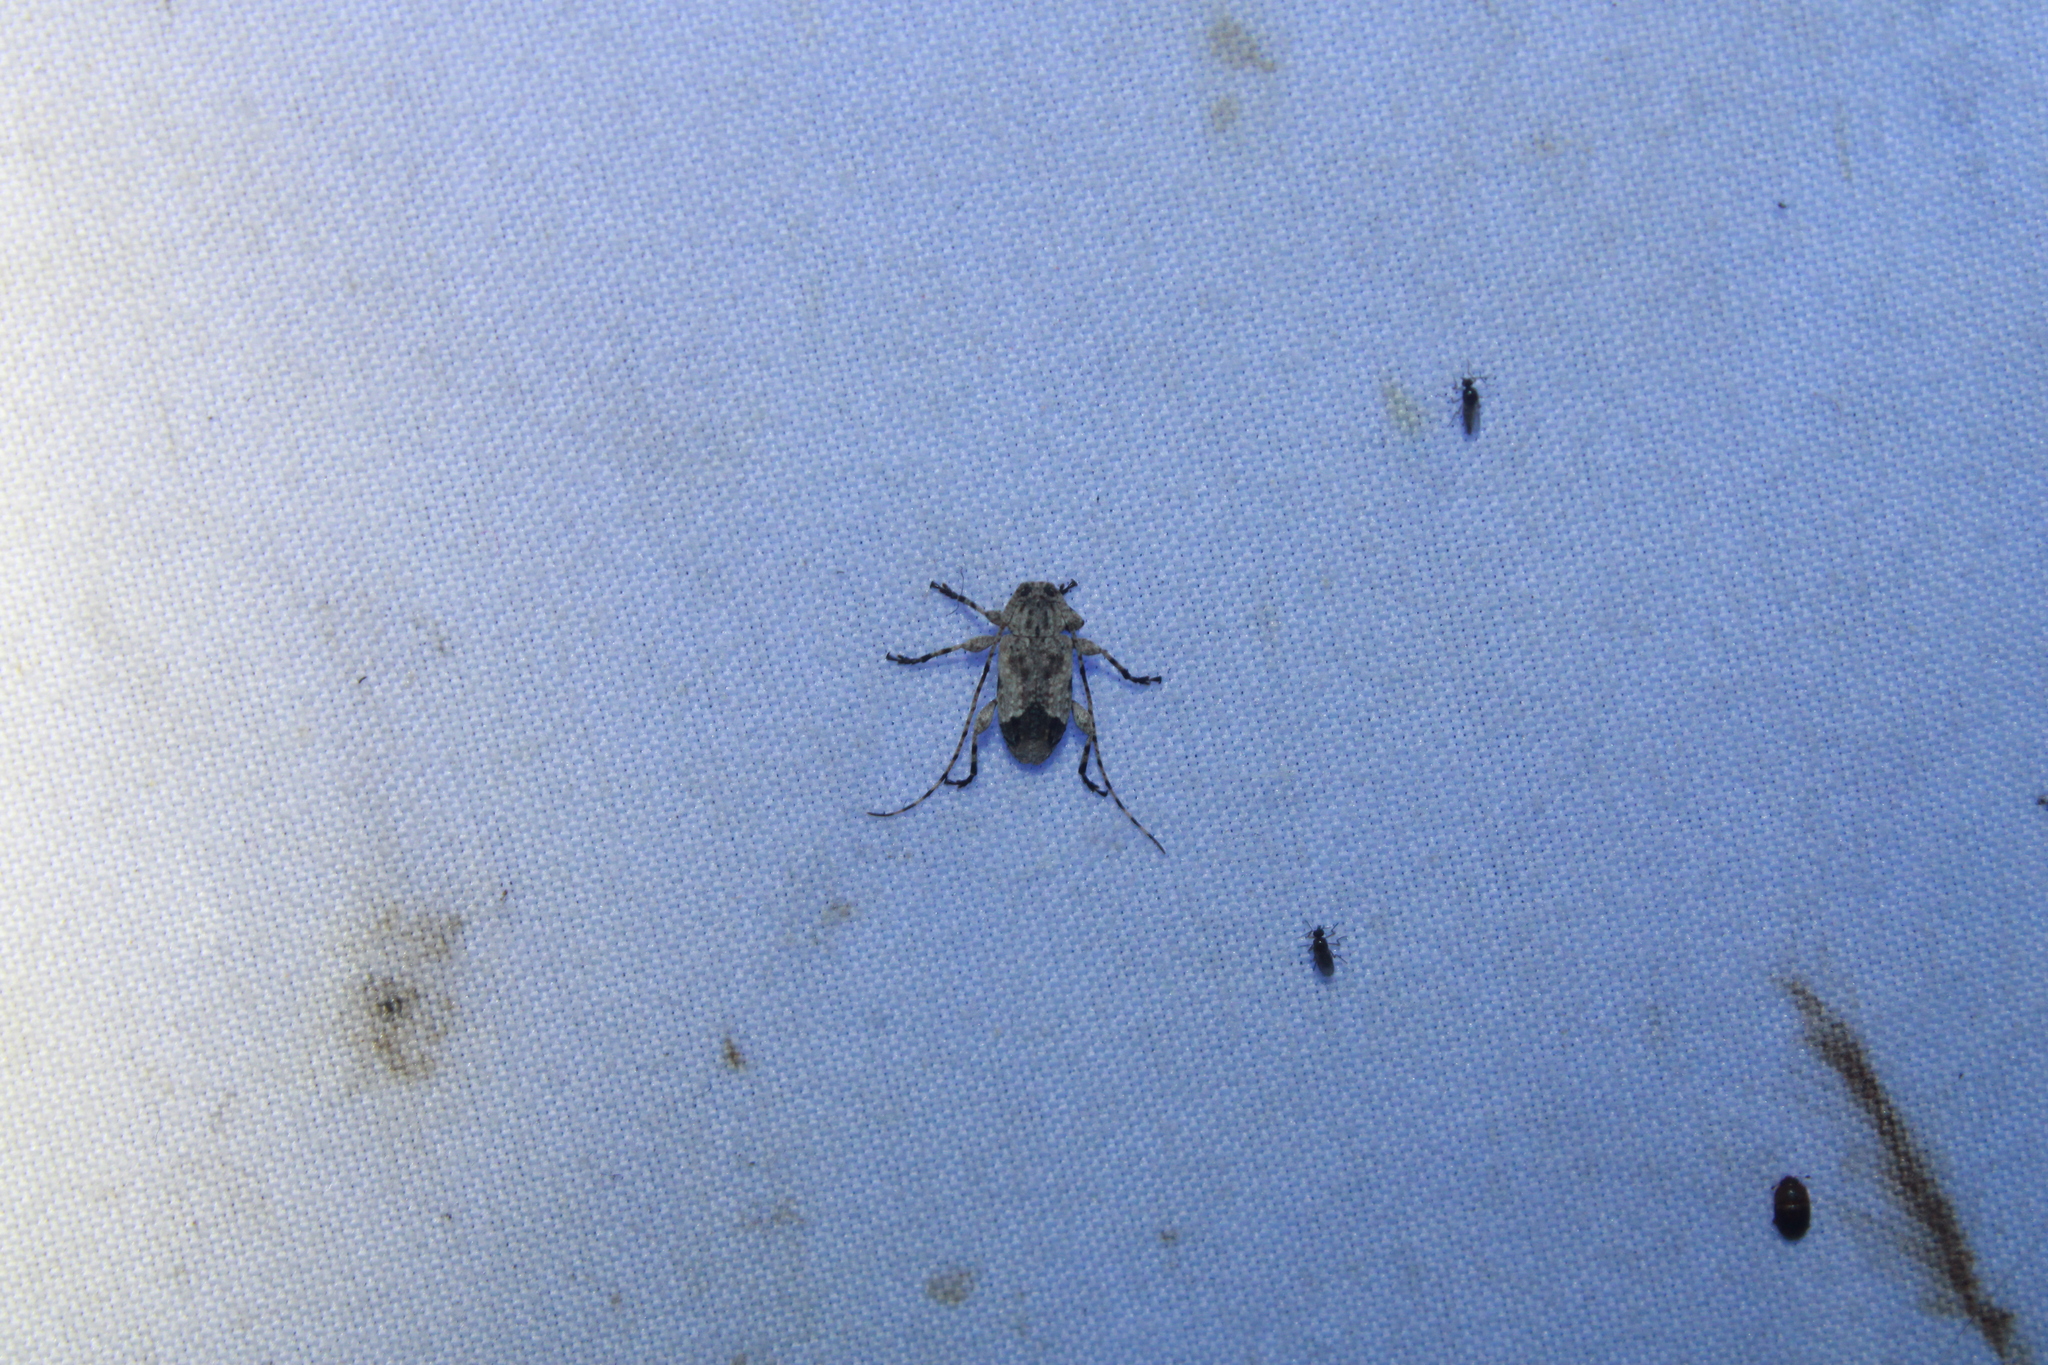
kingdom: Animalia
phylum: Arthropoda
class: Insecta
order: Coleoptera
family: Cerambycidae
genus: Styloleptus
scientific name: Styloleptus biustus
